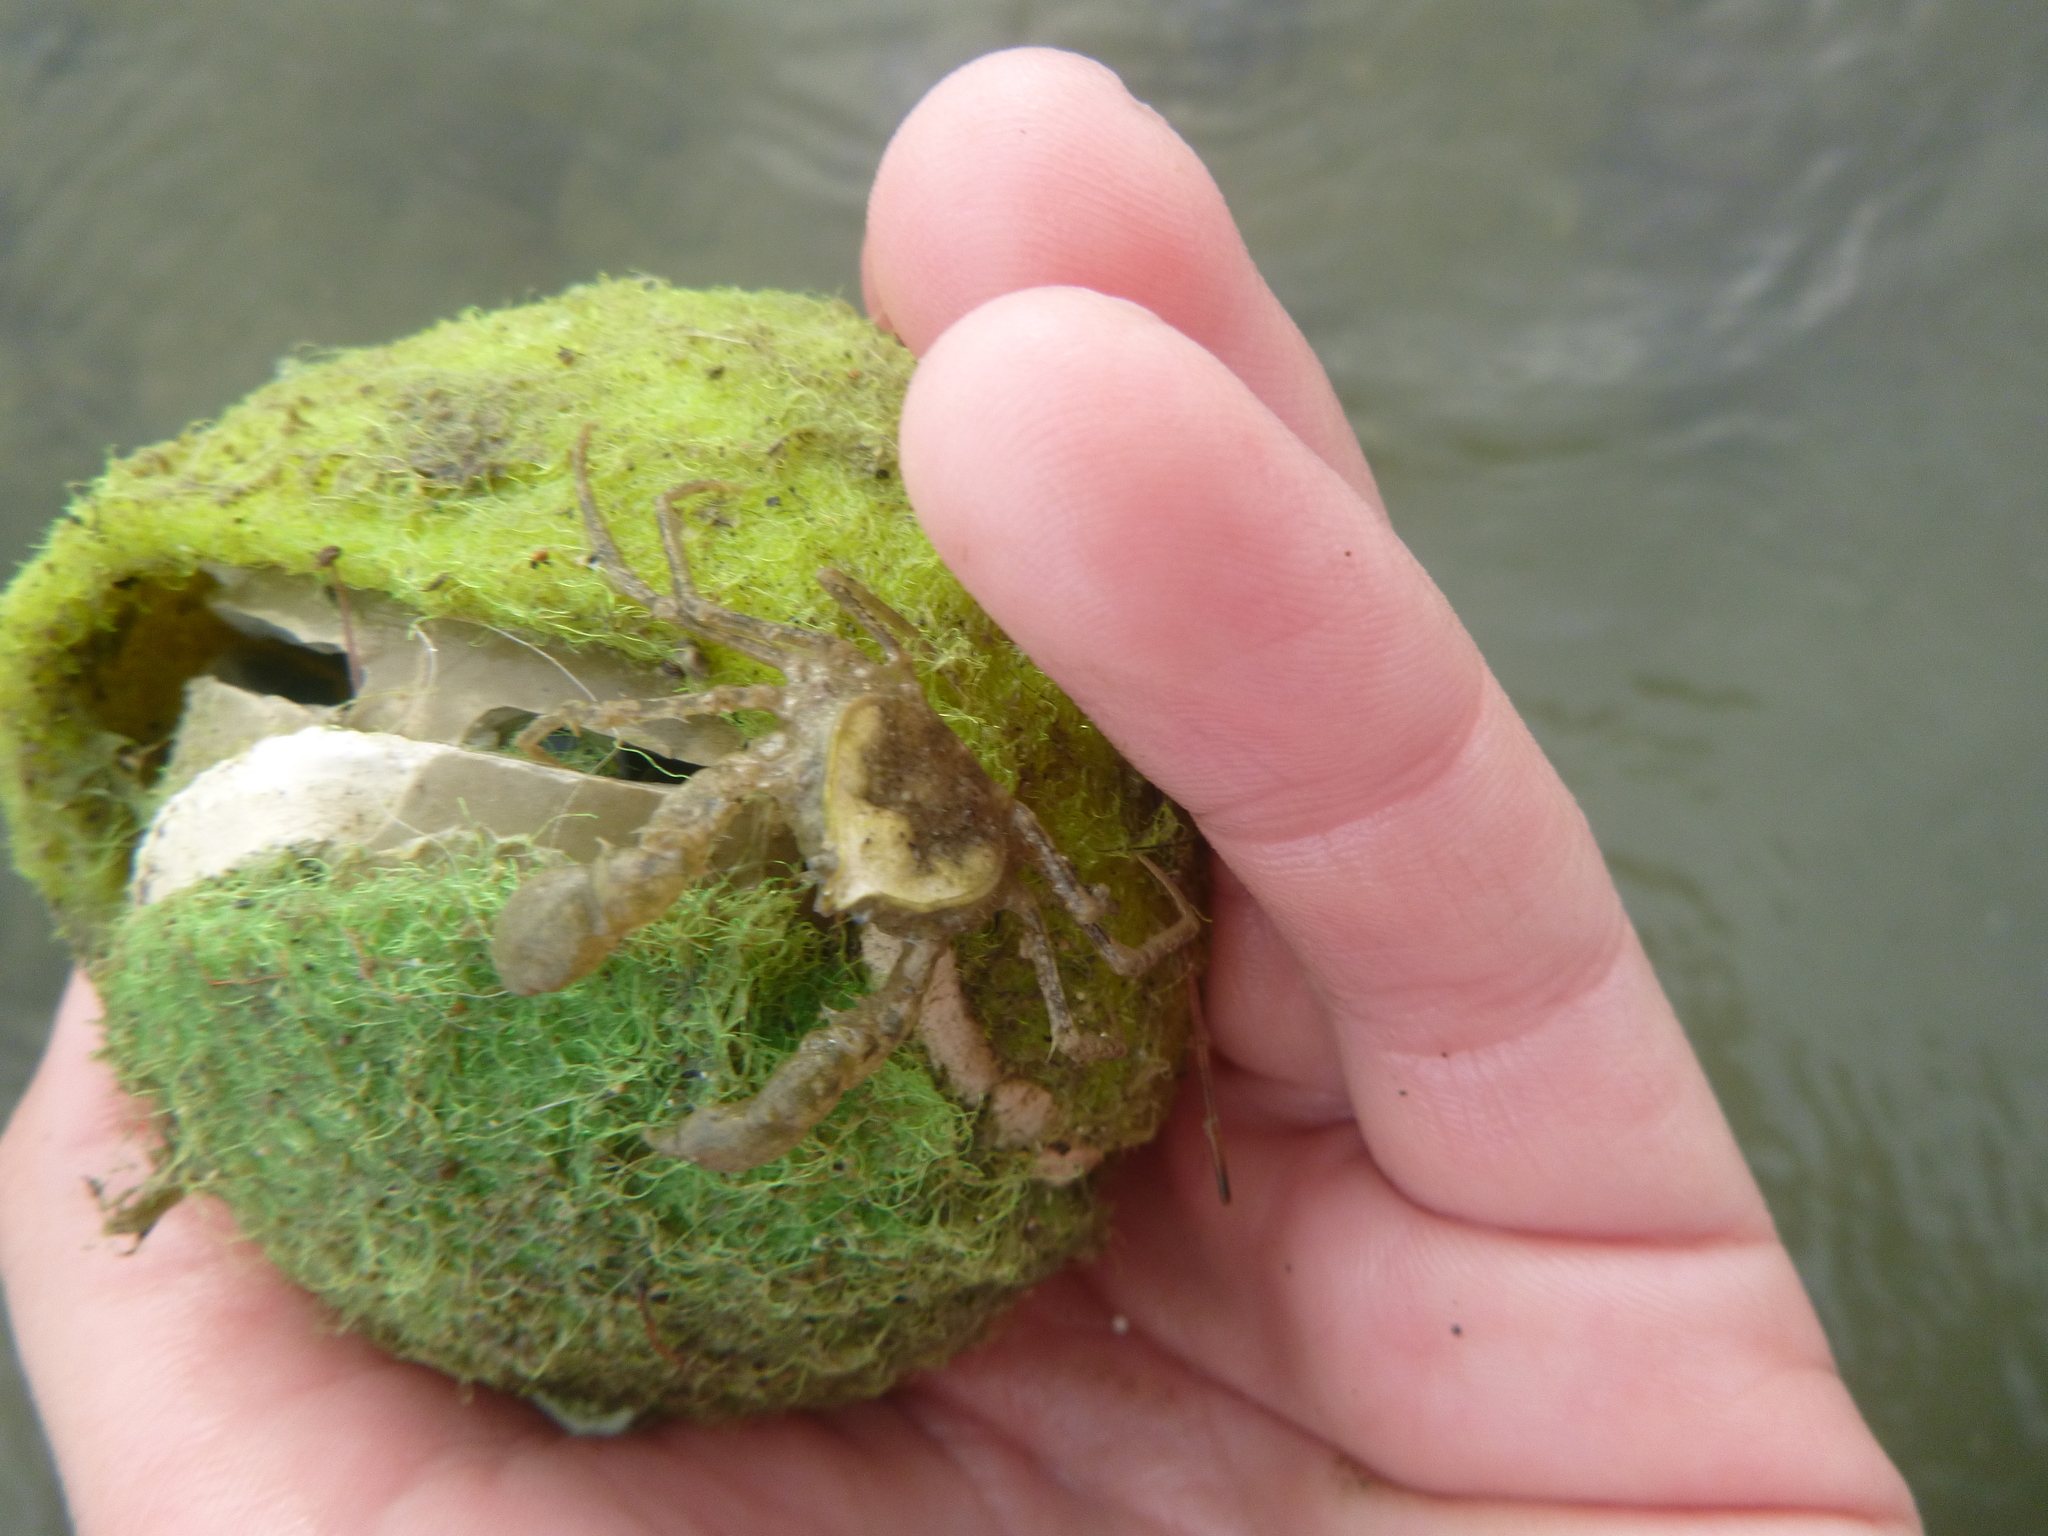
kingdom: Animalia
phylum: Arthropoda
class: Malacostraca
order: Decapoda
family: Hymenosomatidae
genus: Halicarcinus
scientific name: Halicarcinus whitei
